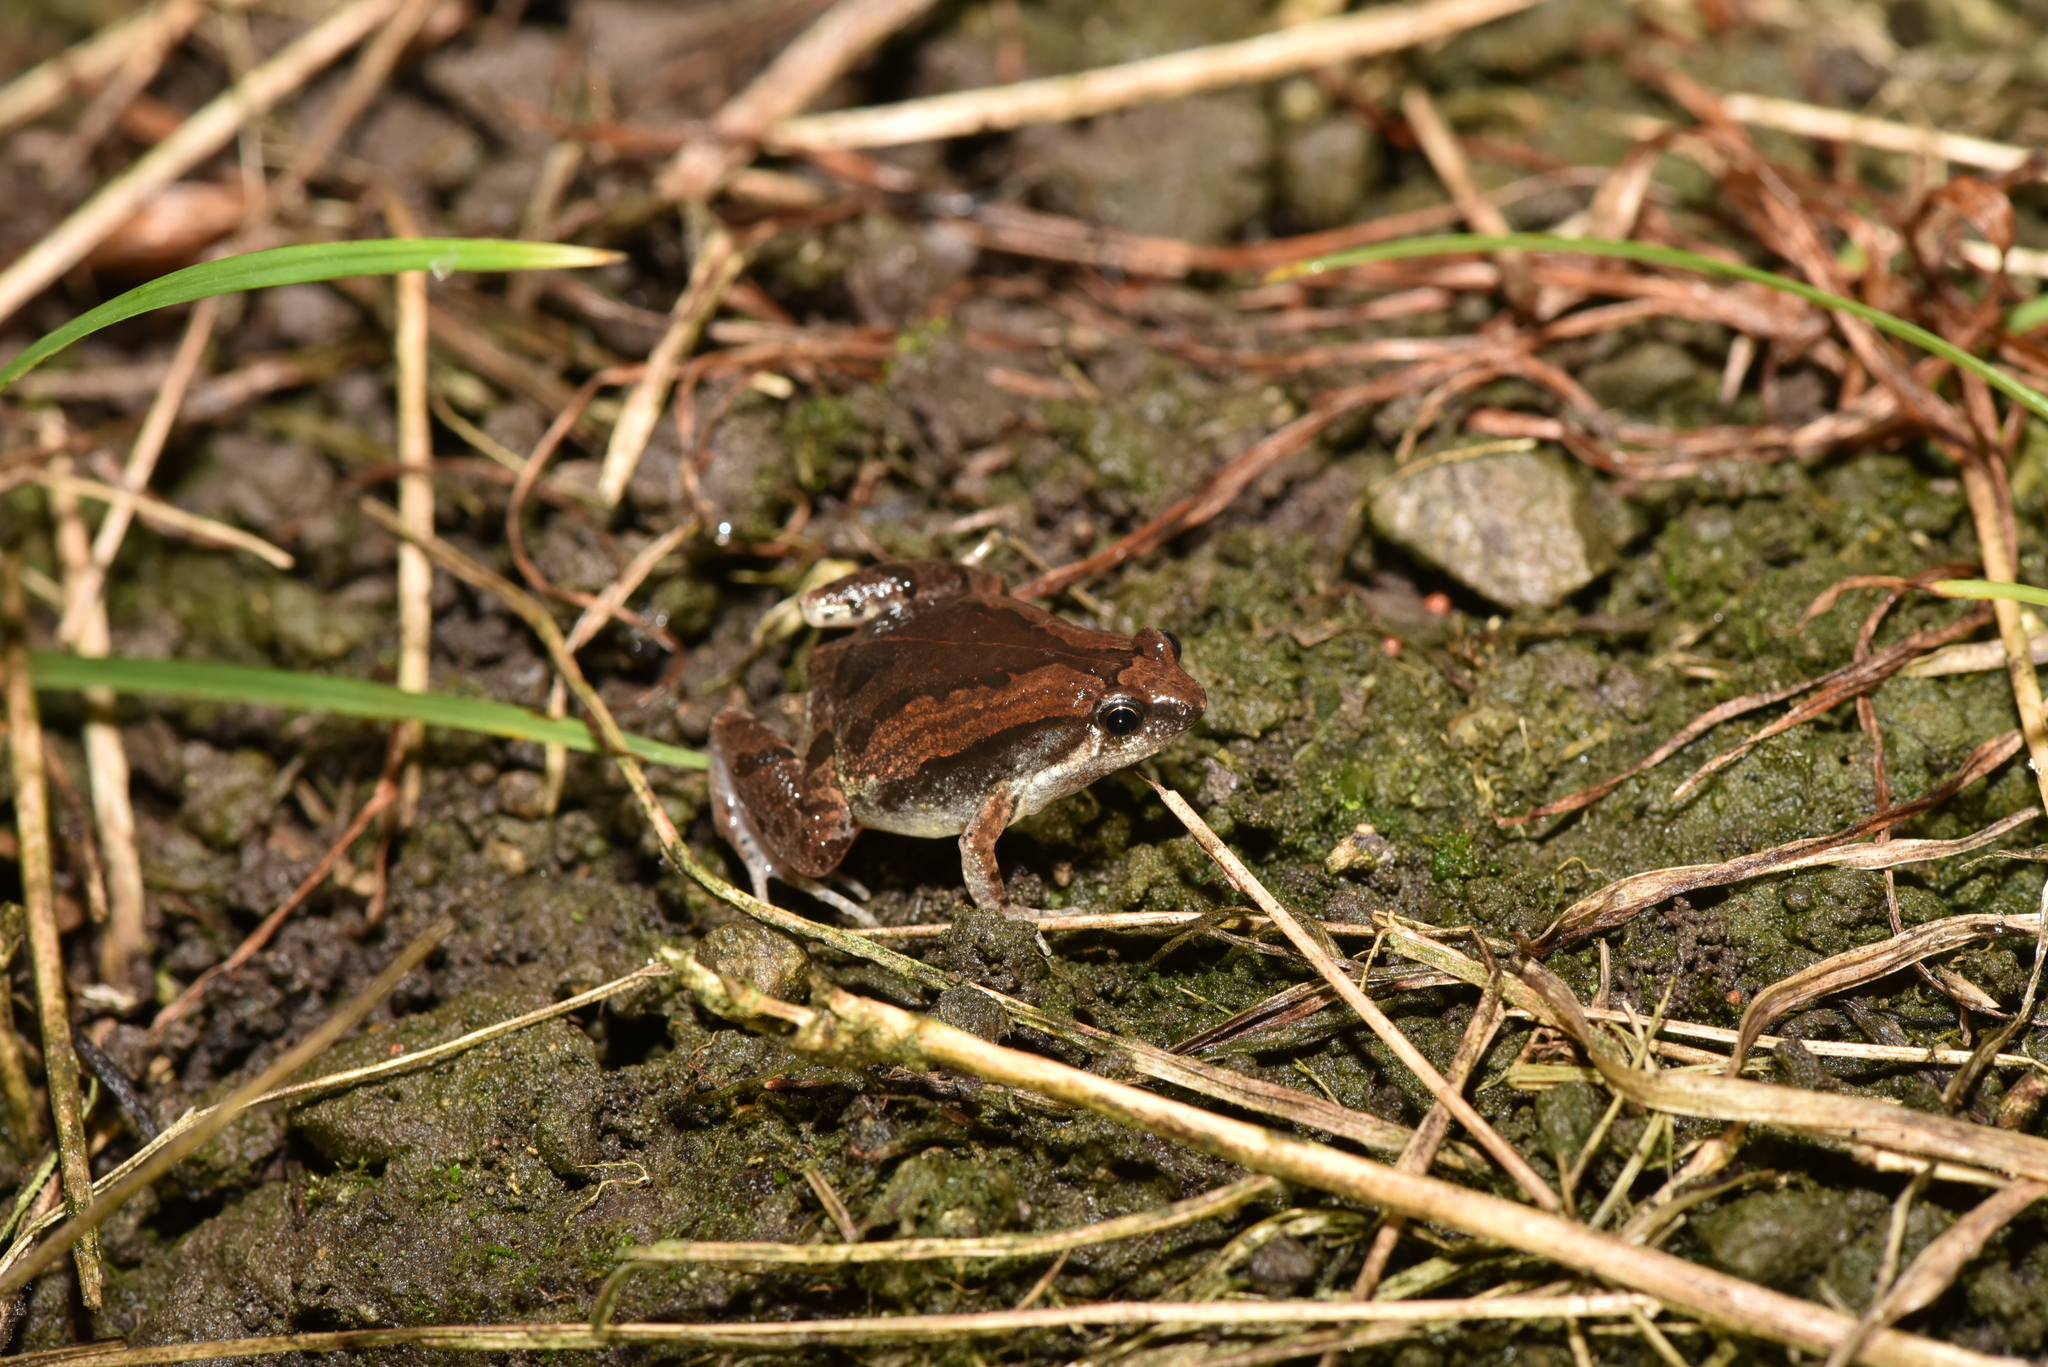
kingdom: Animalia
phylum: Chordata
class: Amphibia
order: Anura
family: Microhylidae
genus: Microhyla
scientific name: Microhyla fissipes
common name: Ornate narrow-mouthed frog
